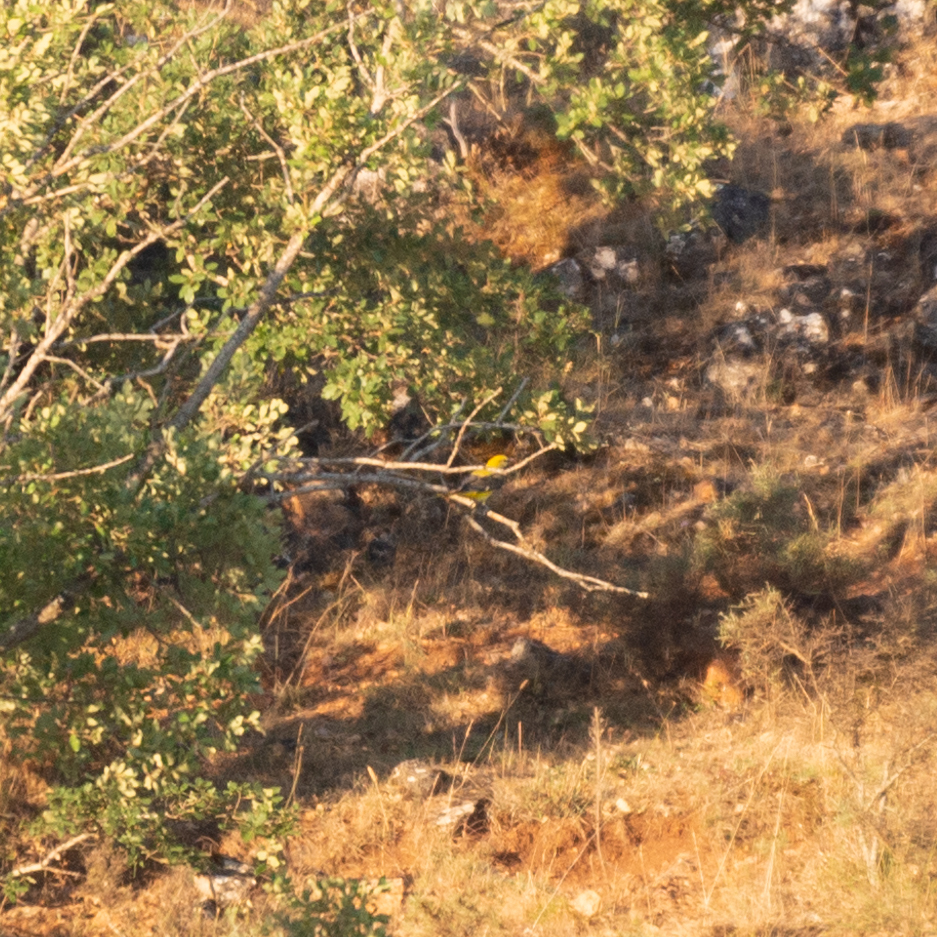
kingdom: Animalia
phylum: Chordata
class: Aves
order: Passeriformes
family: Oriolidae
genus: Oriolus
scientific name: Oriolus oriolus
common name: Eurasian golden oriole
